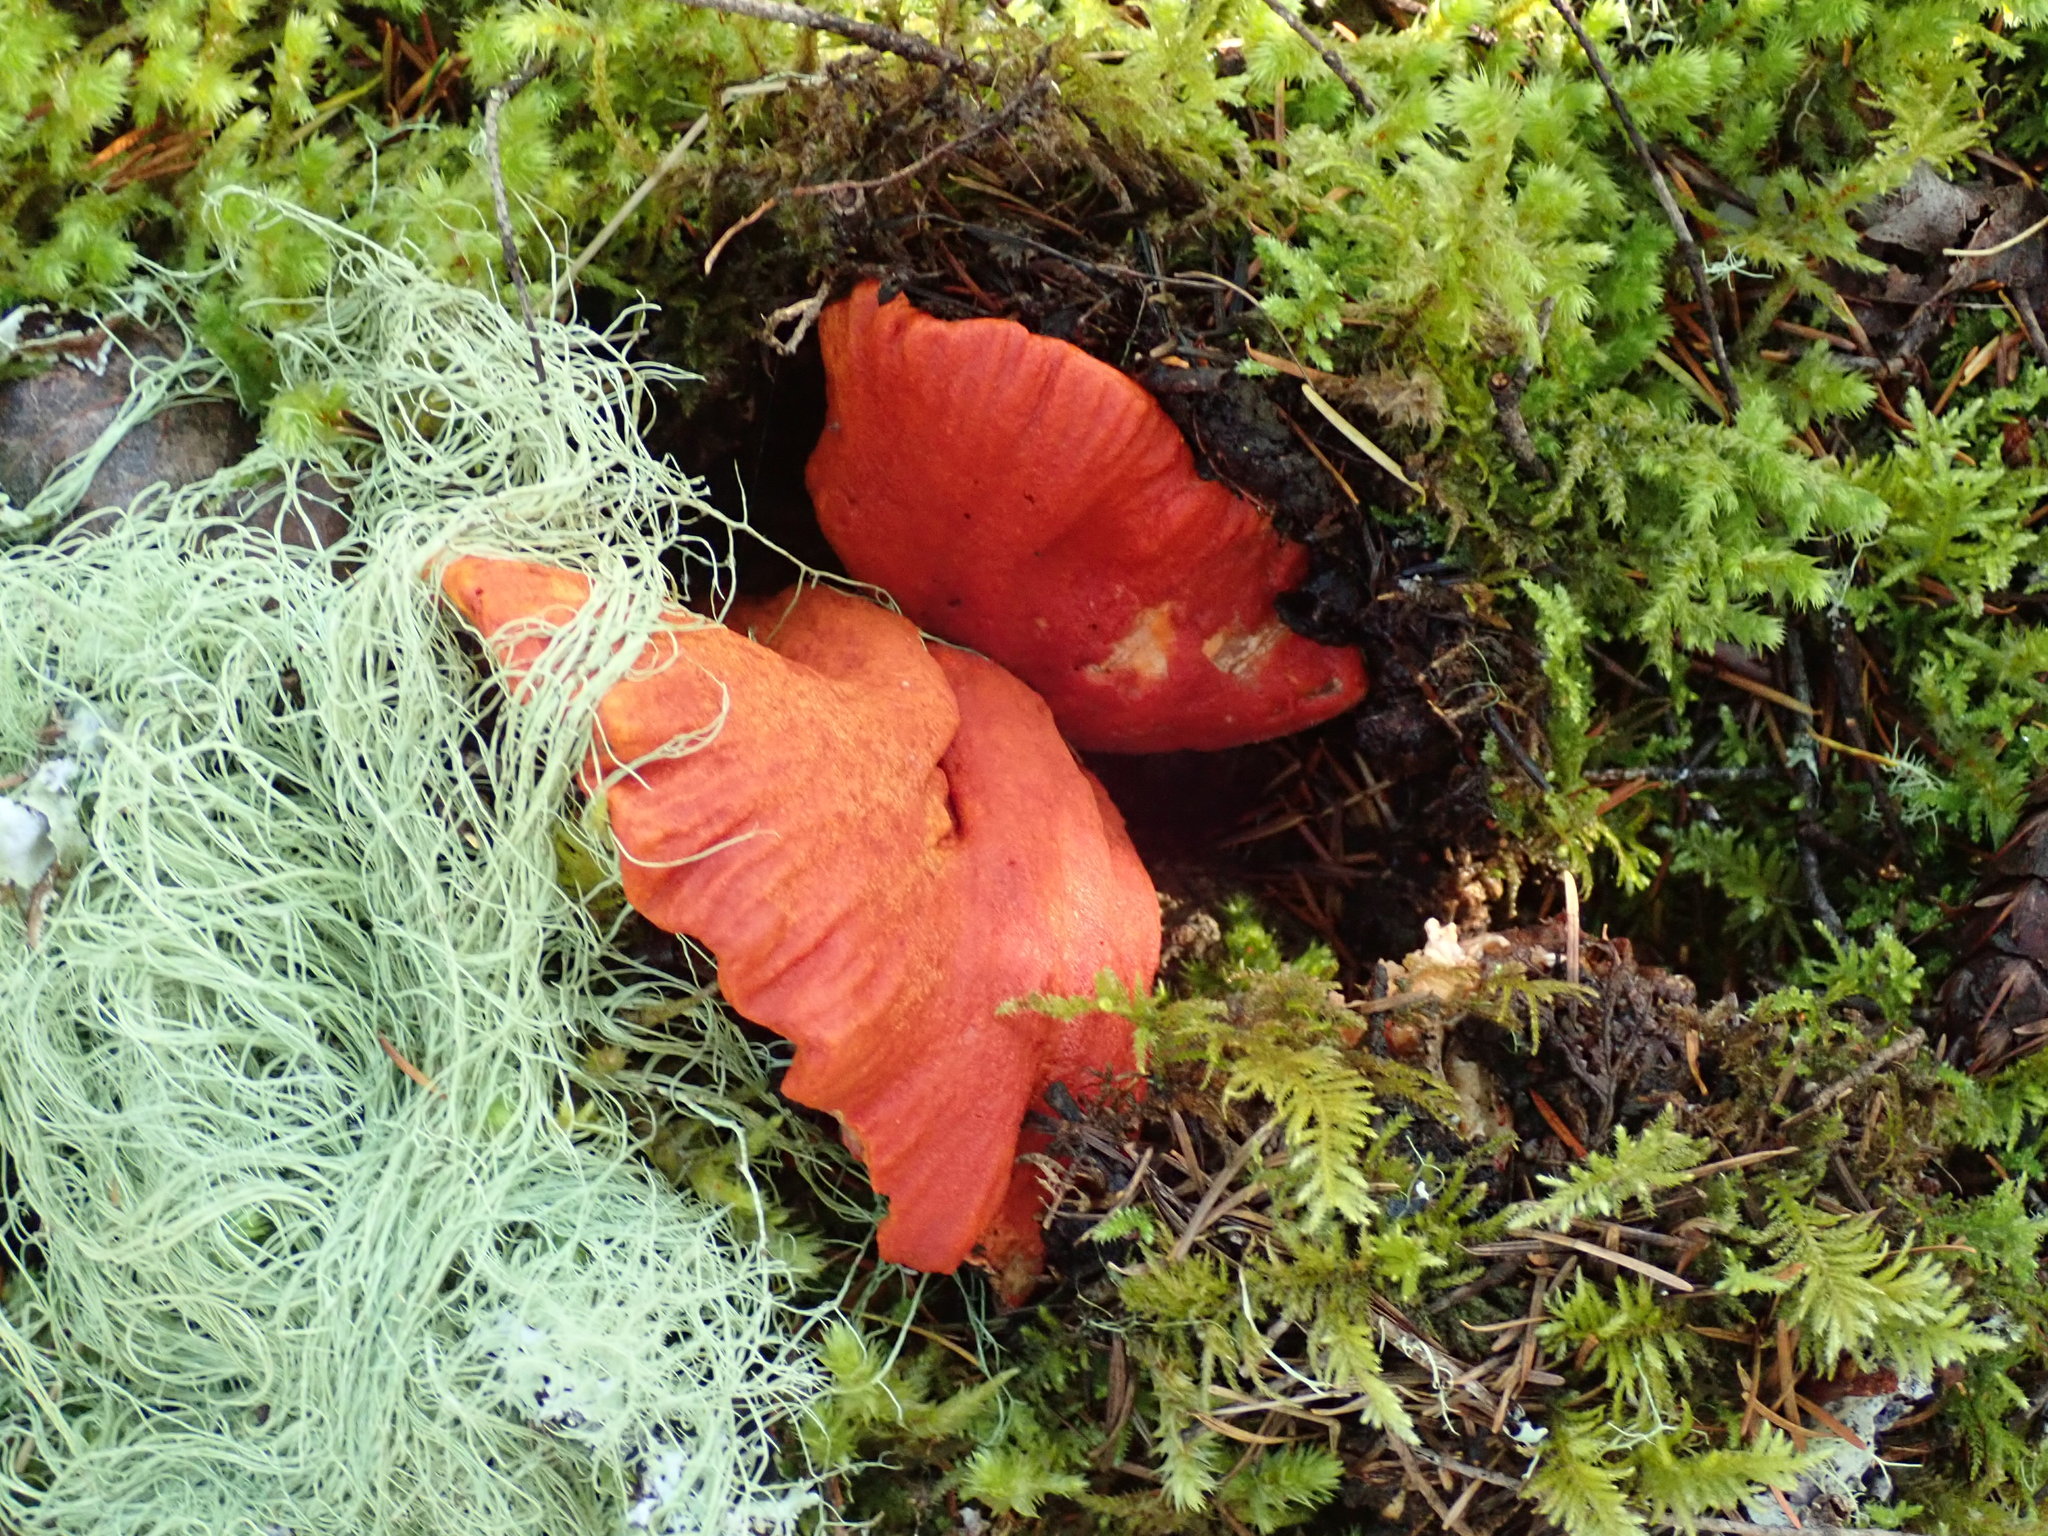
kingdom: Fungi
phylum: Ascomycota
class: Sordariomycetes
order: Hypocreales
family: Hypocreaceae
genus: Hypomyces
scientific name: Hypomyces lactifluorum
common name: Lobster mushroom
